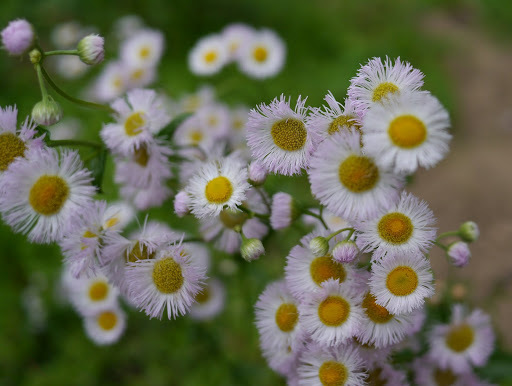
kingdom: Plantae
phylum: Tracheophyta
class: Magnoliopsida
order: Asterales
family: Asteraceae
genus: Erigeron
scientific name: Erigeron philadelphicus
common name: Robin's-plantain
